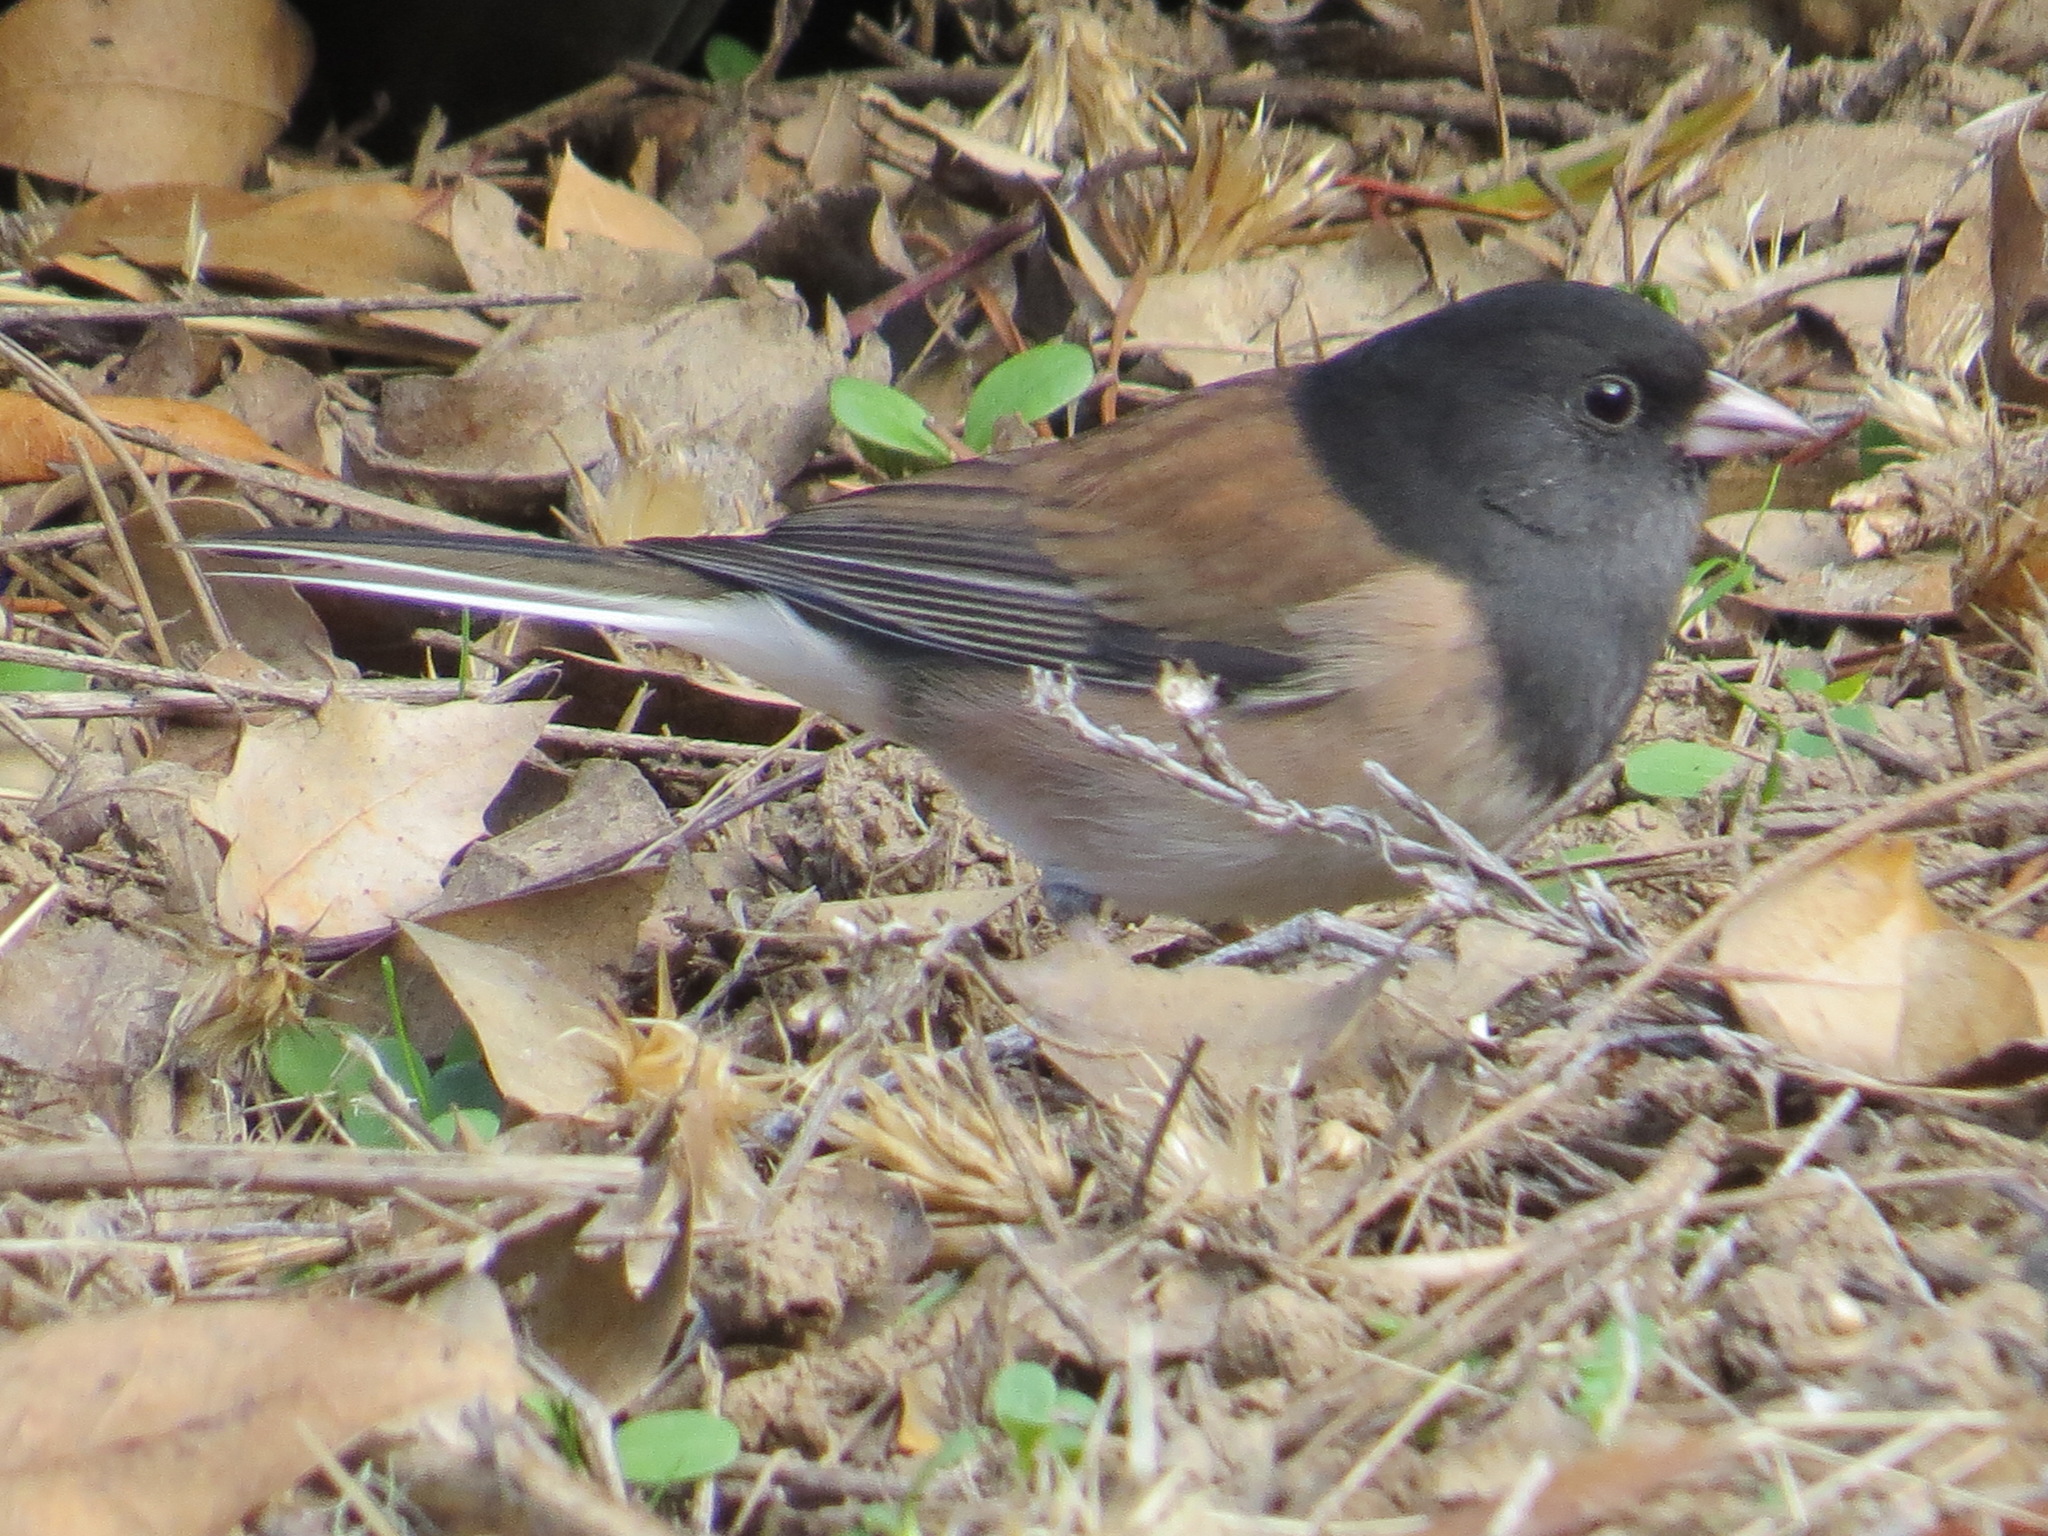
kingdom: Animalia
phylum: Chordata
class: Aves
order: Passeriformes
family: Passerellidae
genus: Junco
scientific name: Junco hyemalis
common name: Dark-eyed junco
